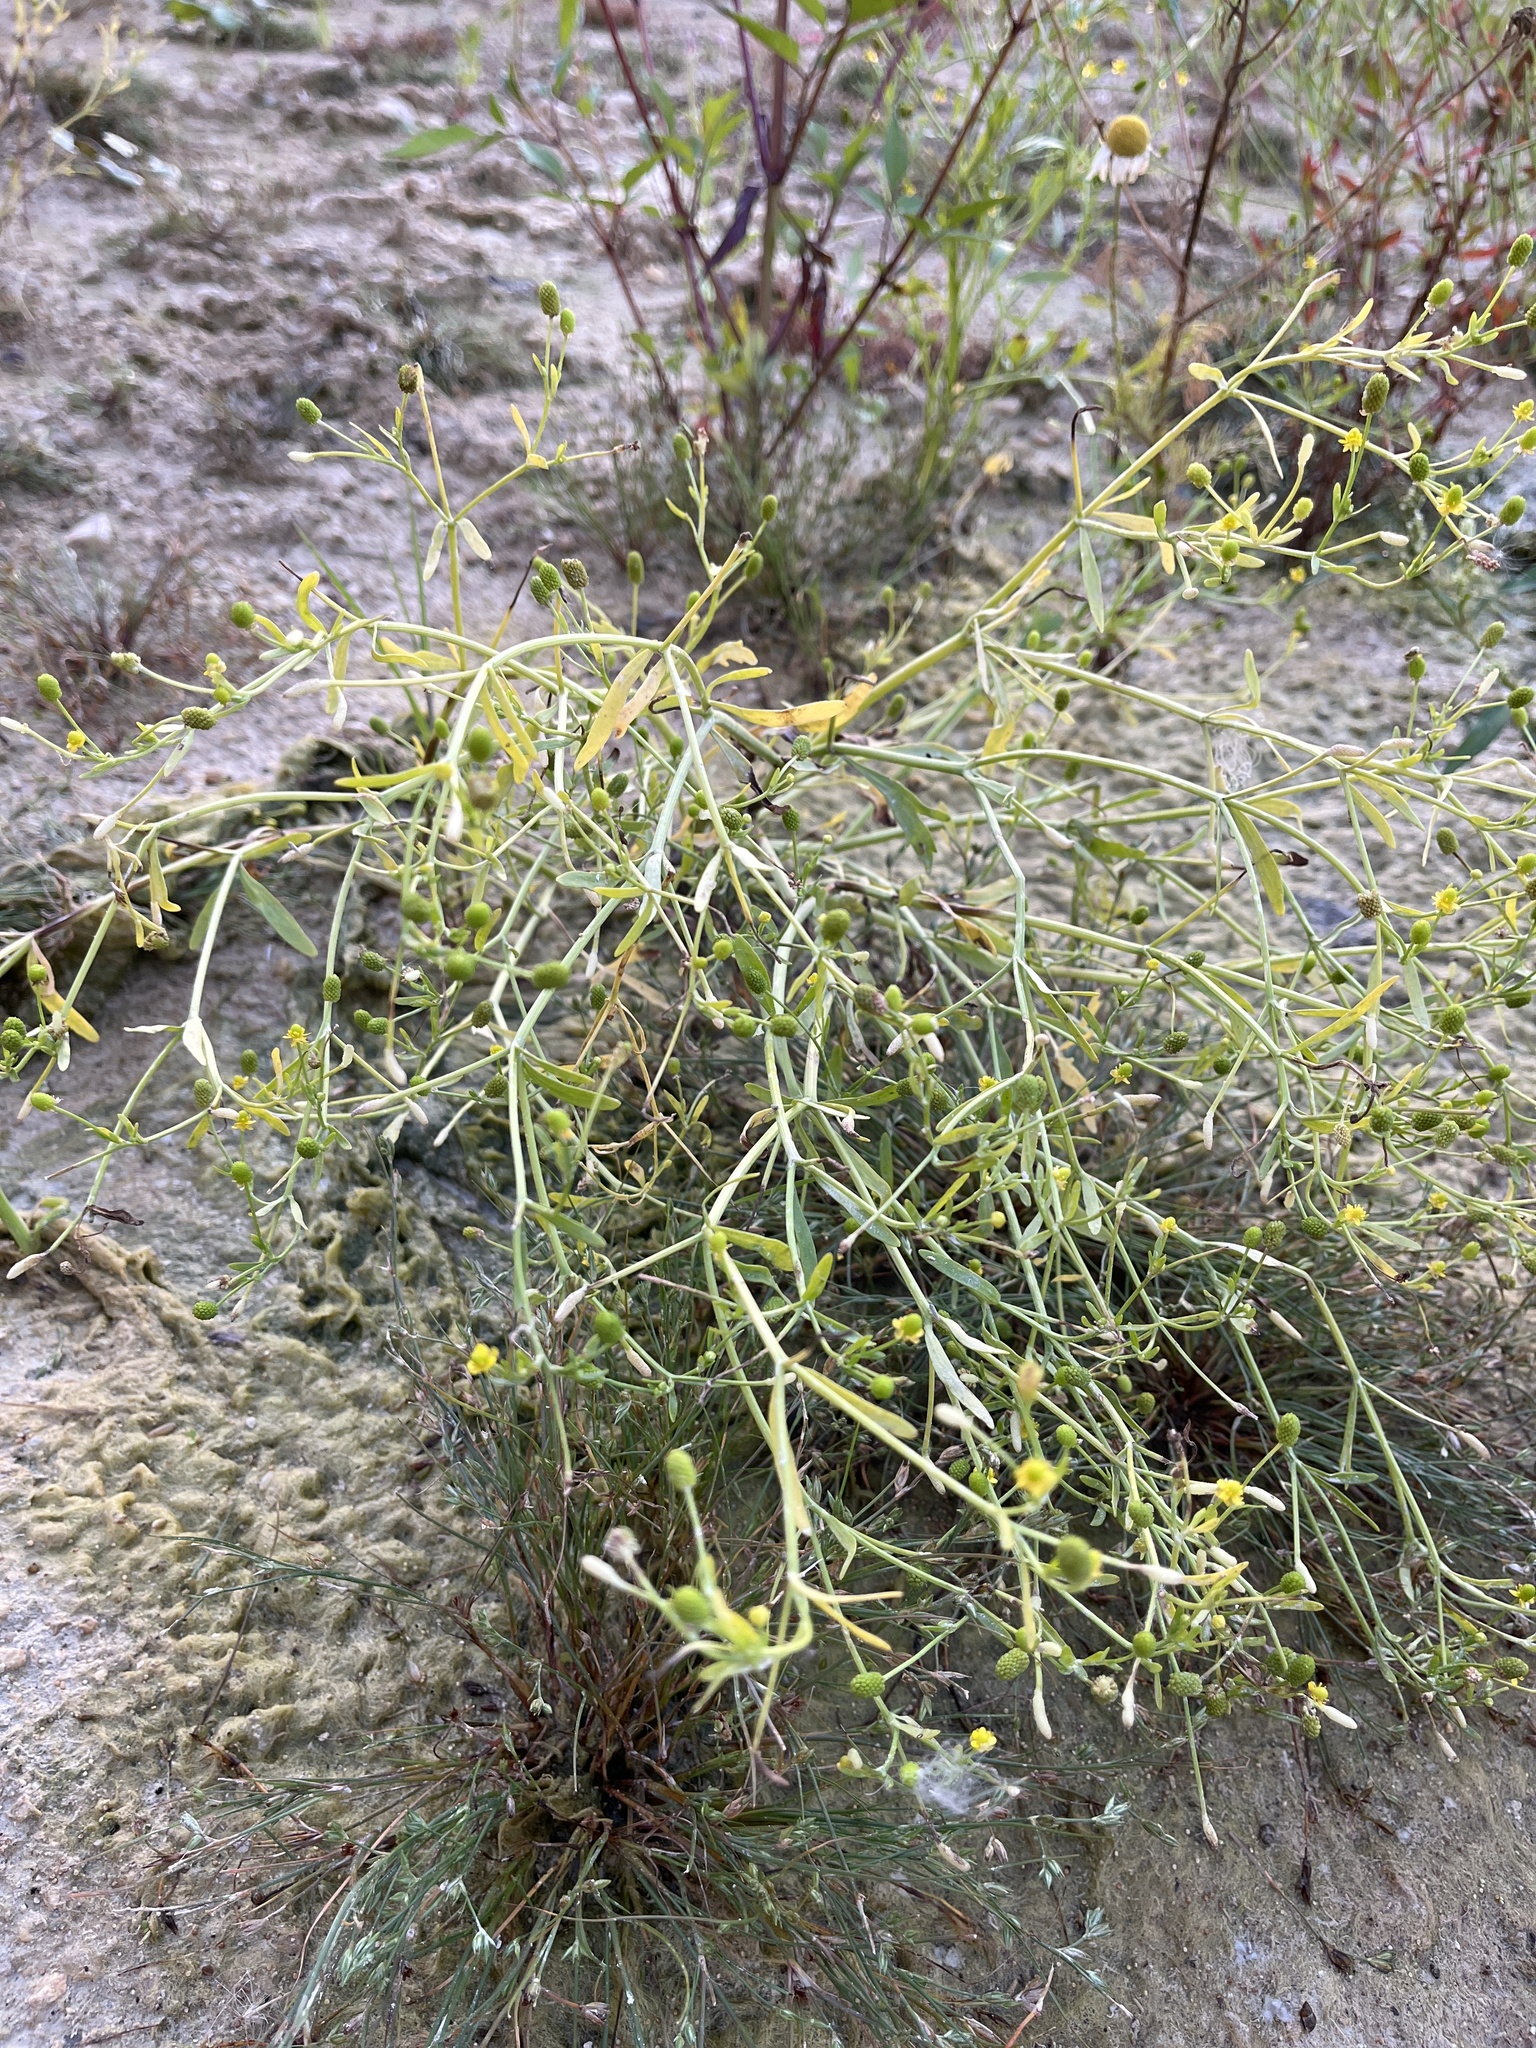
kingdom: Plantae
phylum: Tracheophyta
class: Magnoliopsida
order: Ranunculales
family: Ranunculaceae
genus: Ranunculus
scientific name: Ranunculus sceleratus
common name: Celery-leaved buttercup
